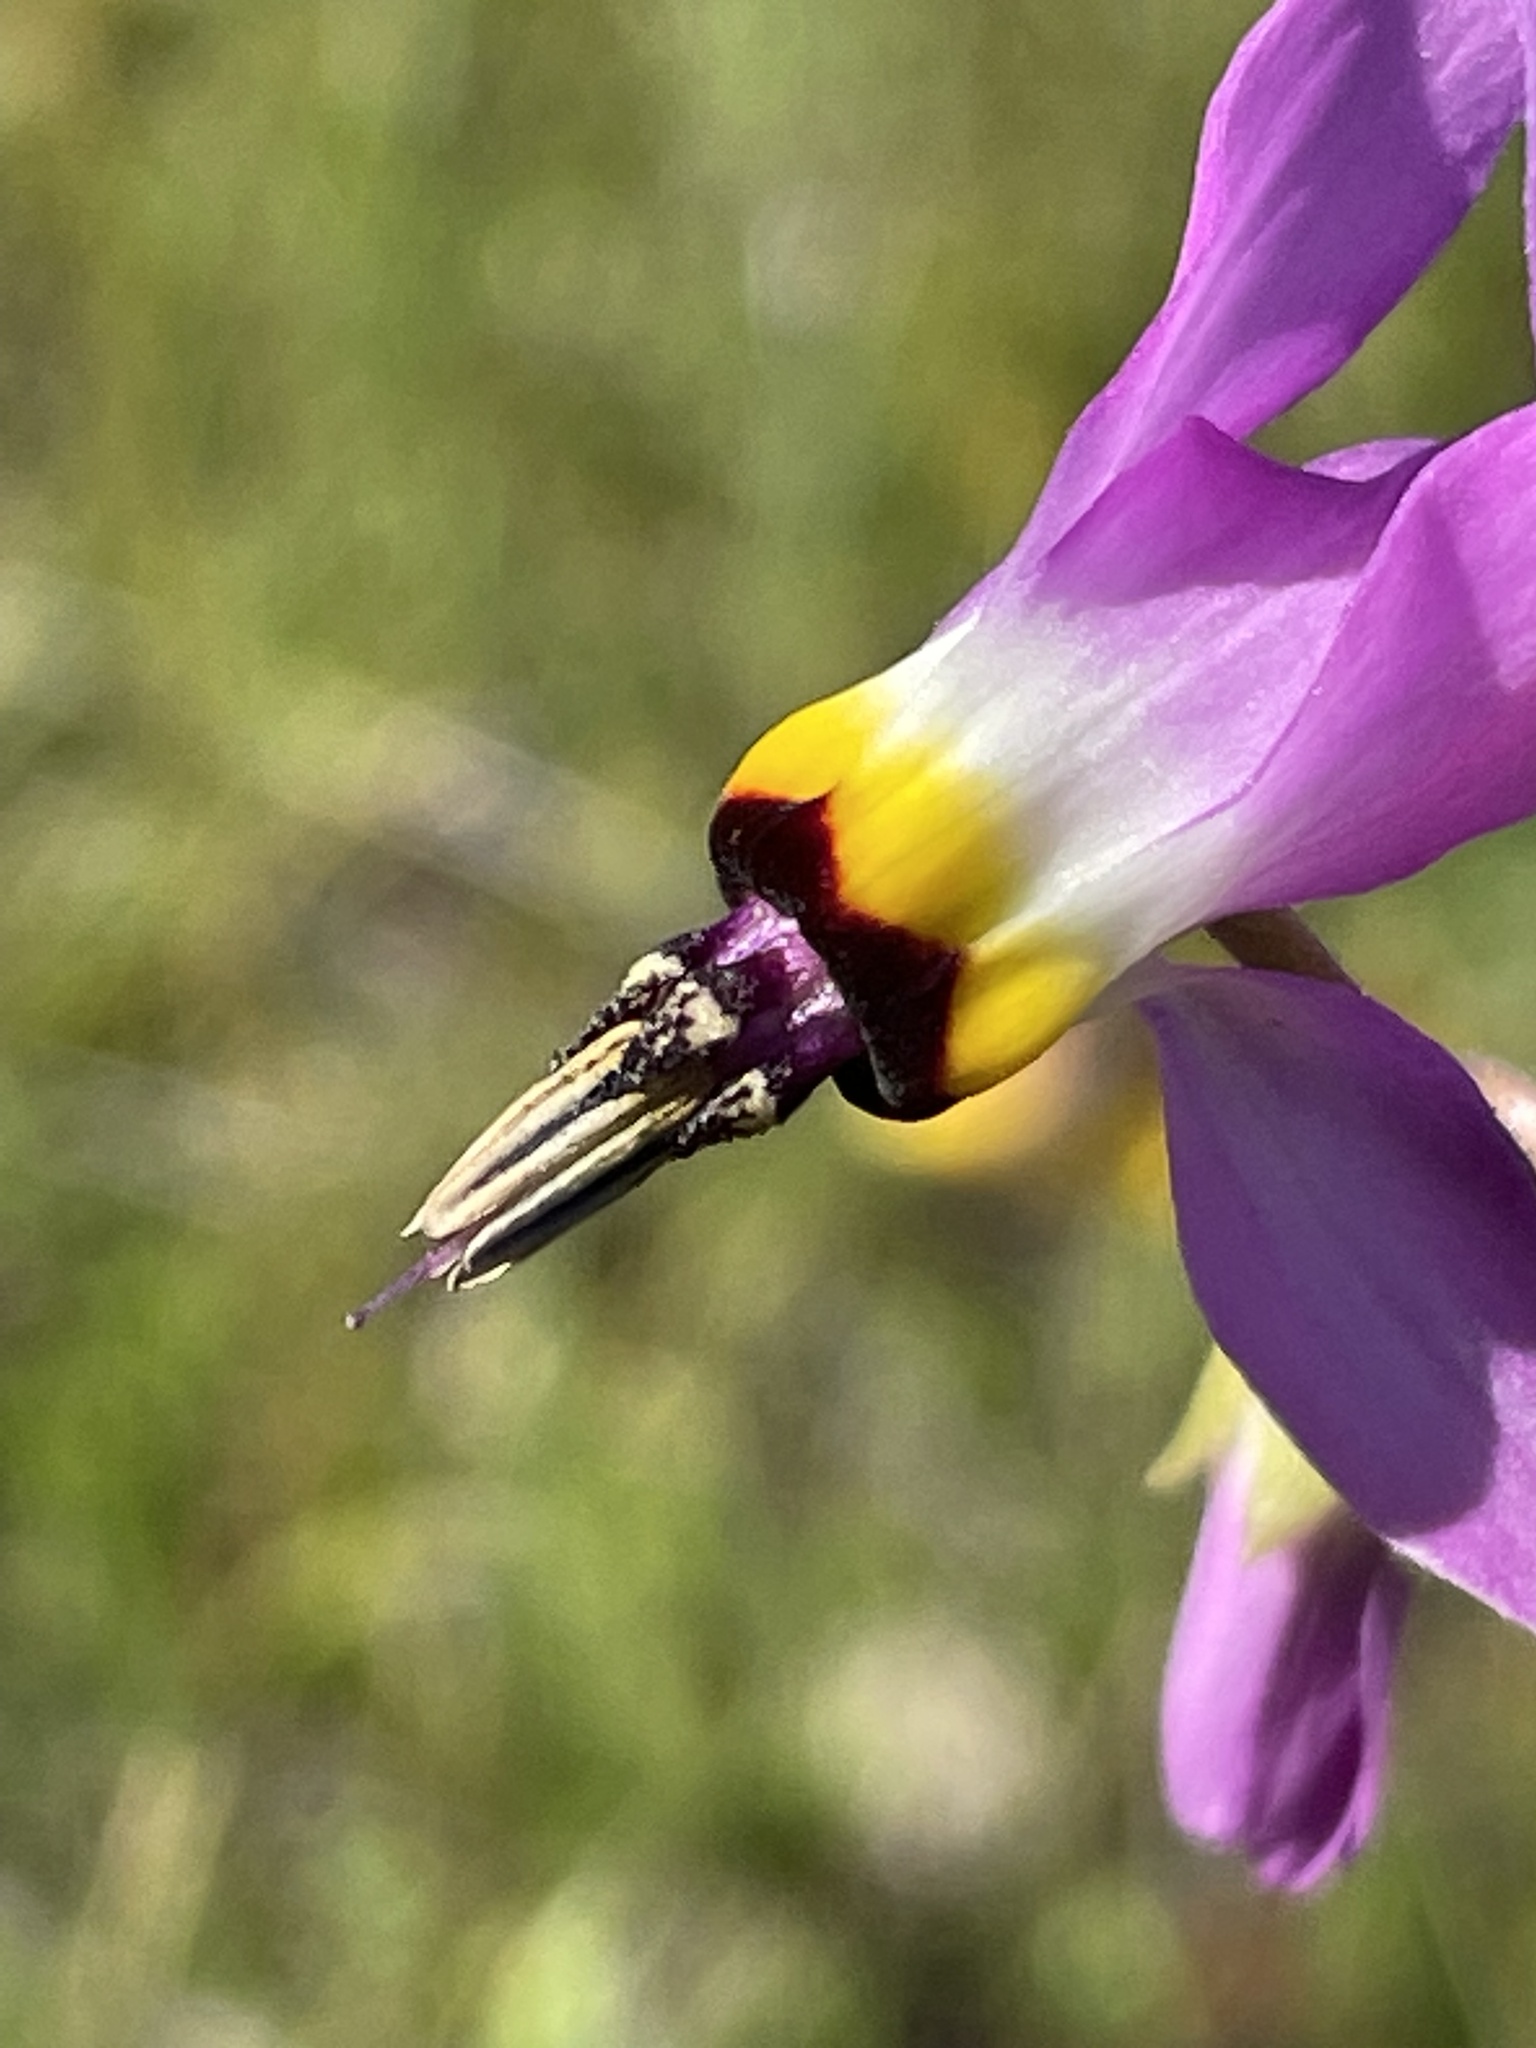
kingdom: Plantae
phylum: Tracheophyta
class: Magnoliopsida
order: Ericales
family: Primulaceae
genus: Dodecatheon
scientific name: Dodecatheon clevelandii
